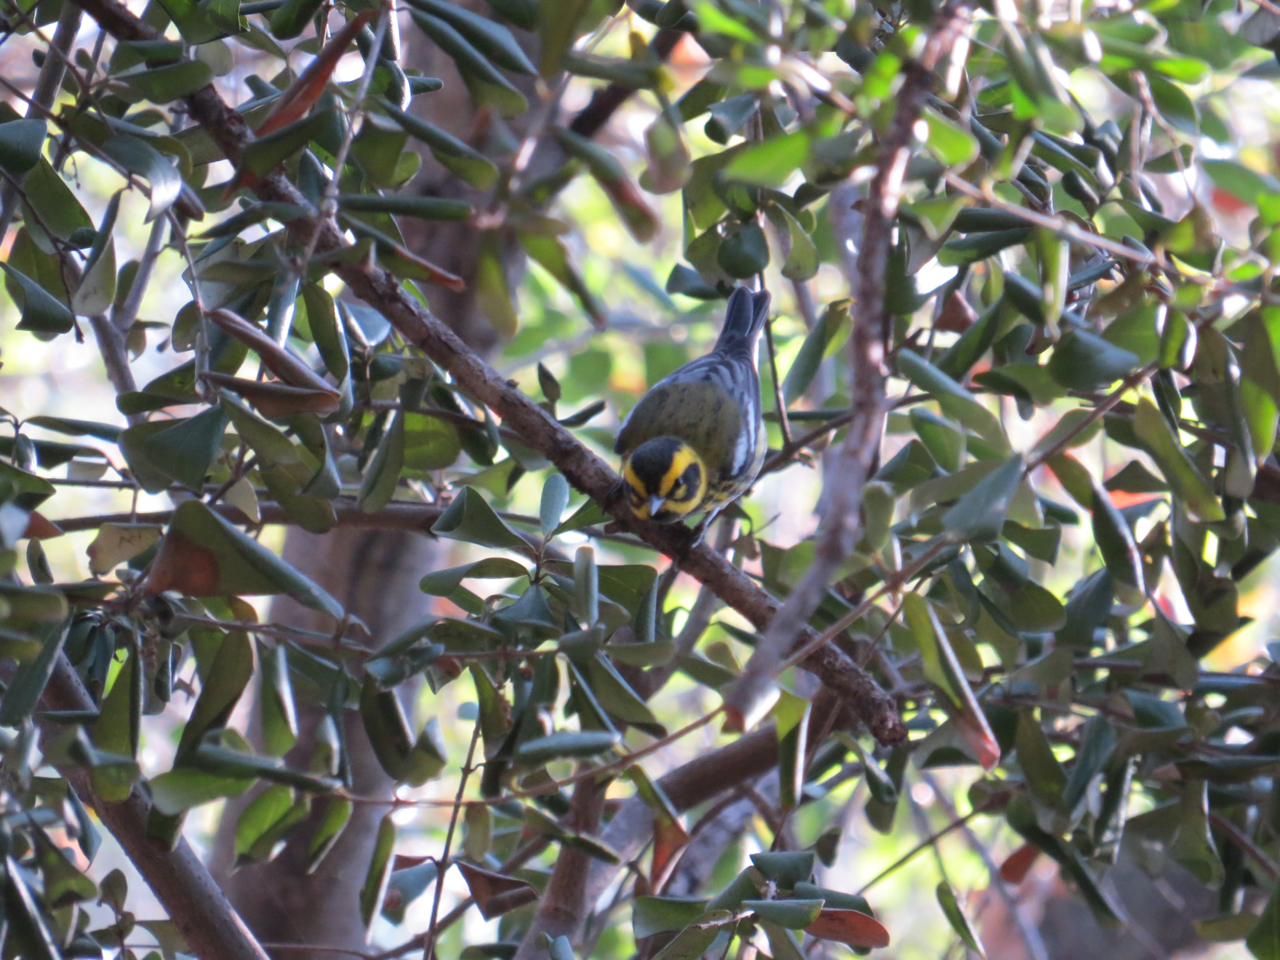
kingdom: Animalia
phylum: Chordata
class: Aves
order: Passeriformes
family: Parulidae
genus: Setophaga
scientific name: Setophaga townsendi
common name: Townsend's warbler
